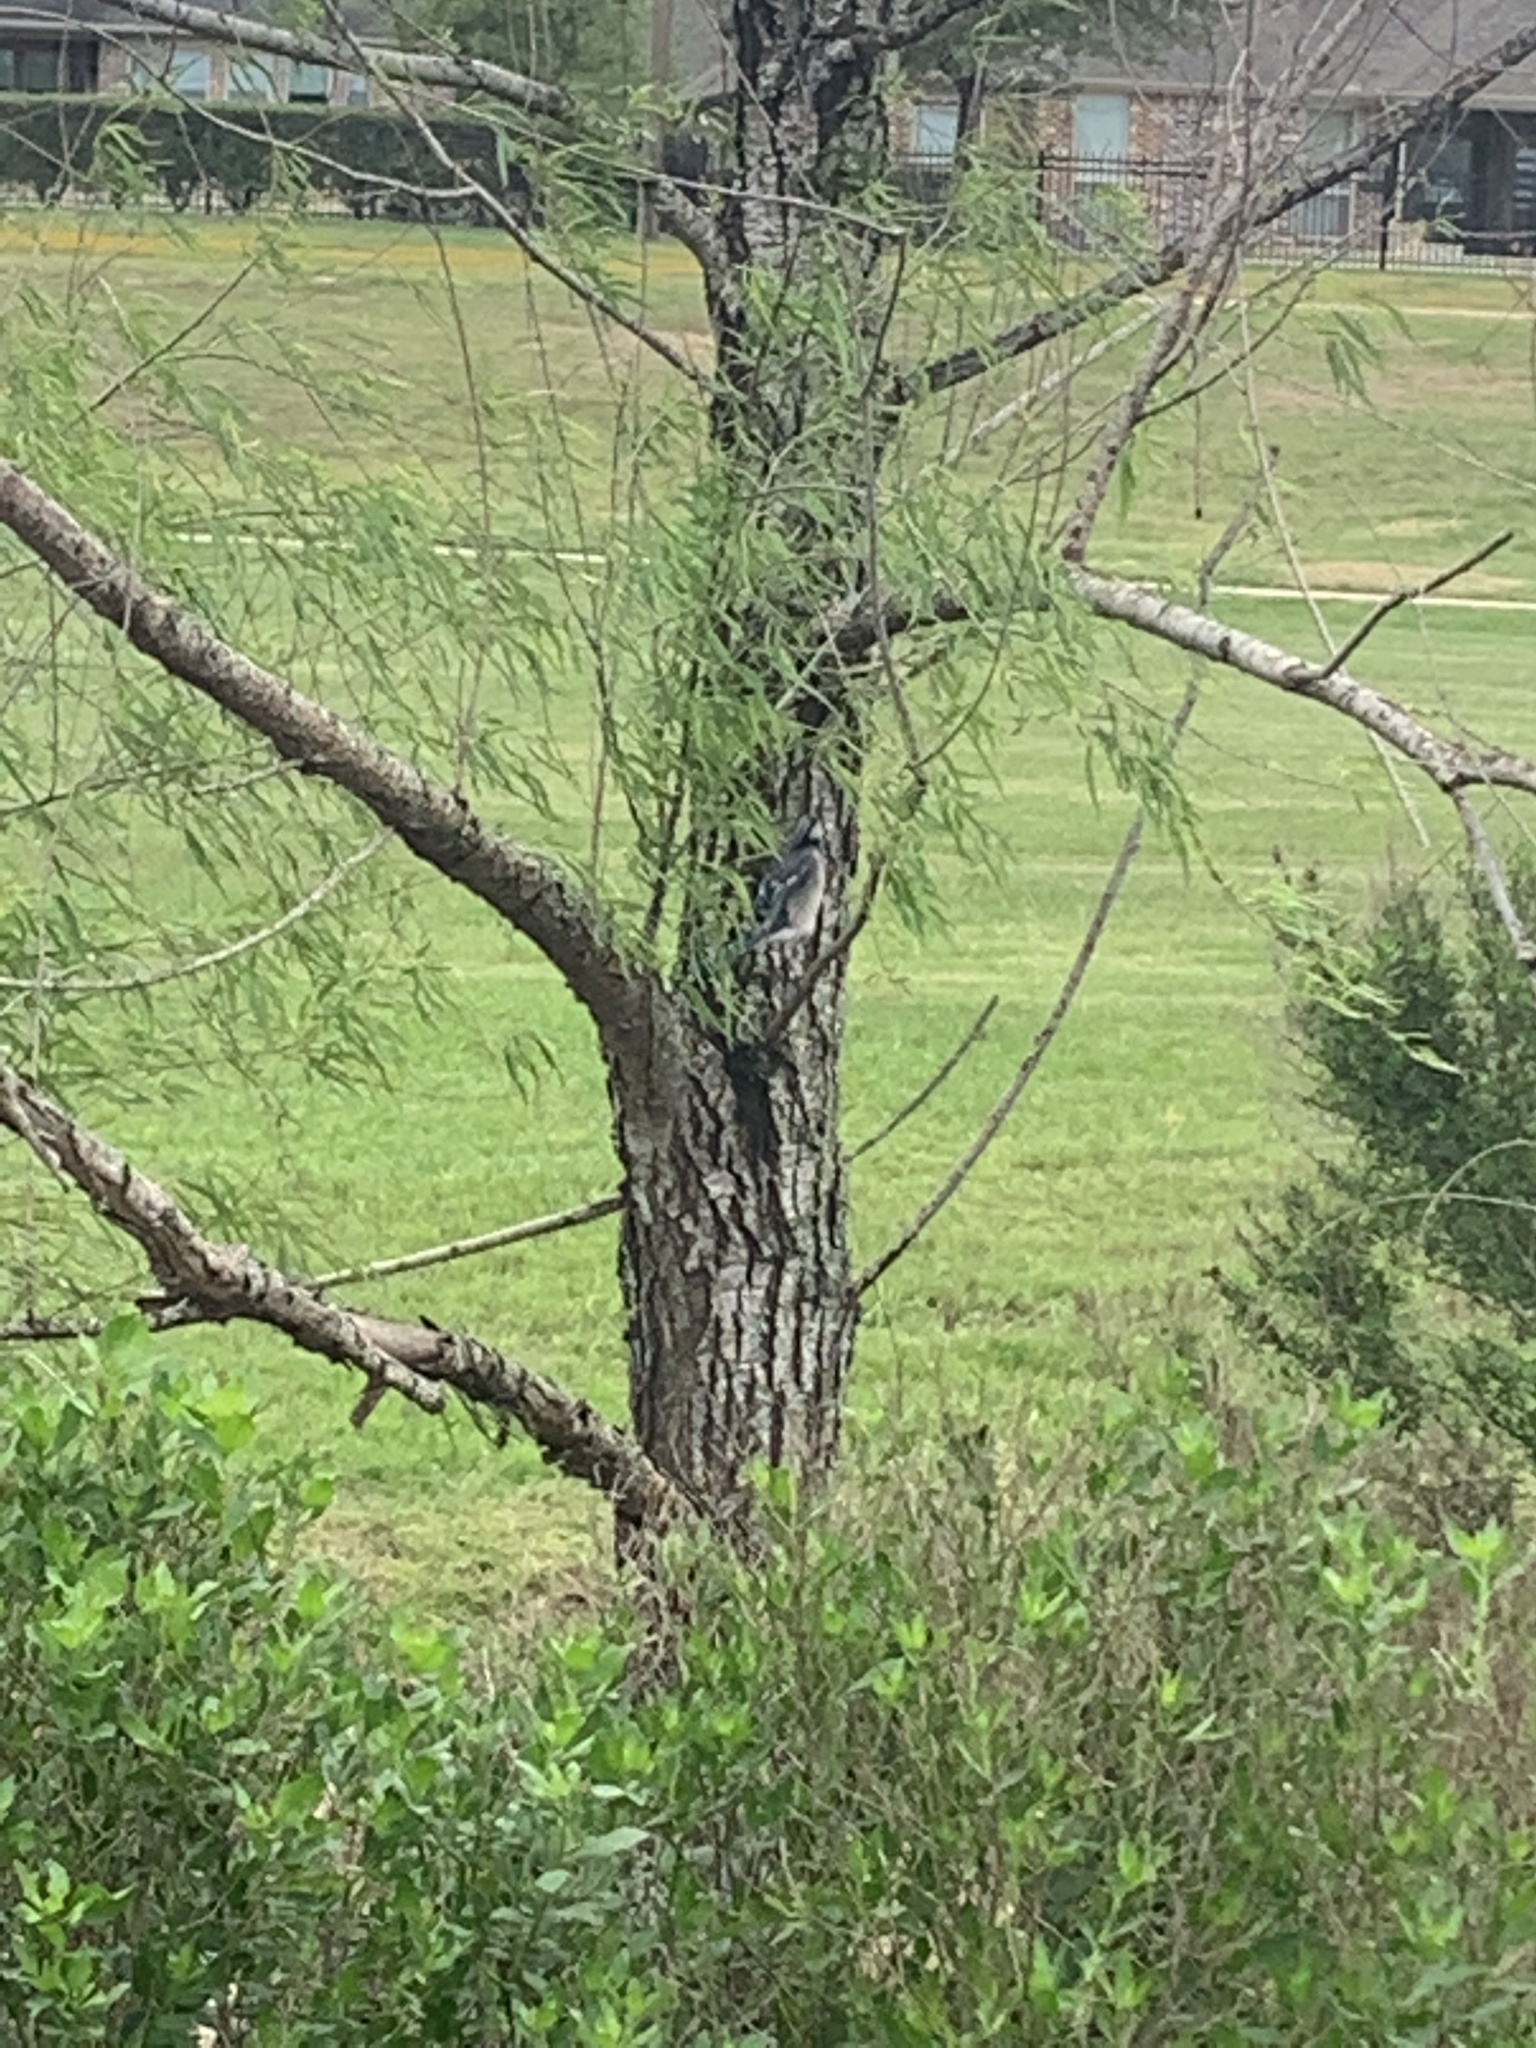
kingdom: Animalia
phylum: Chordata
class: Aves
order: Passeriformes
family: Corvidae
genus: Cyanocitta
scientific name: Cyanocitta cristata
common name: Blue jay
